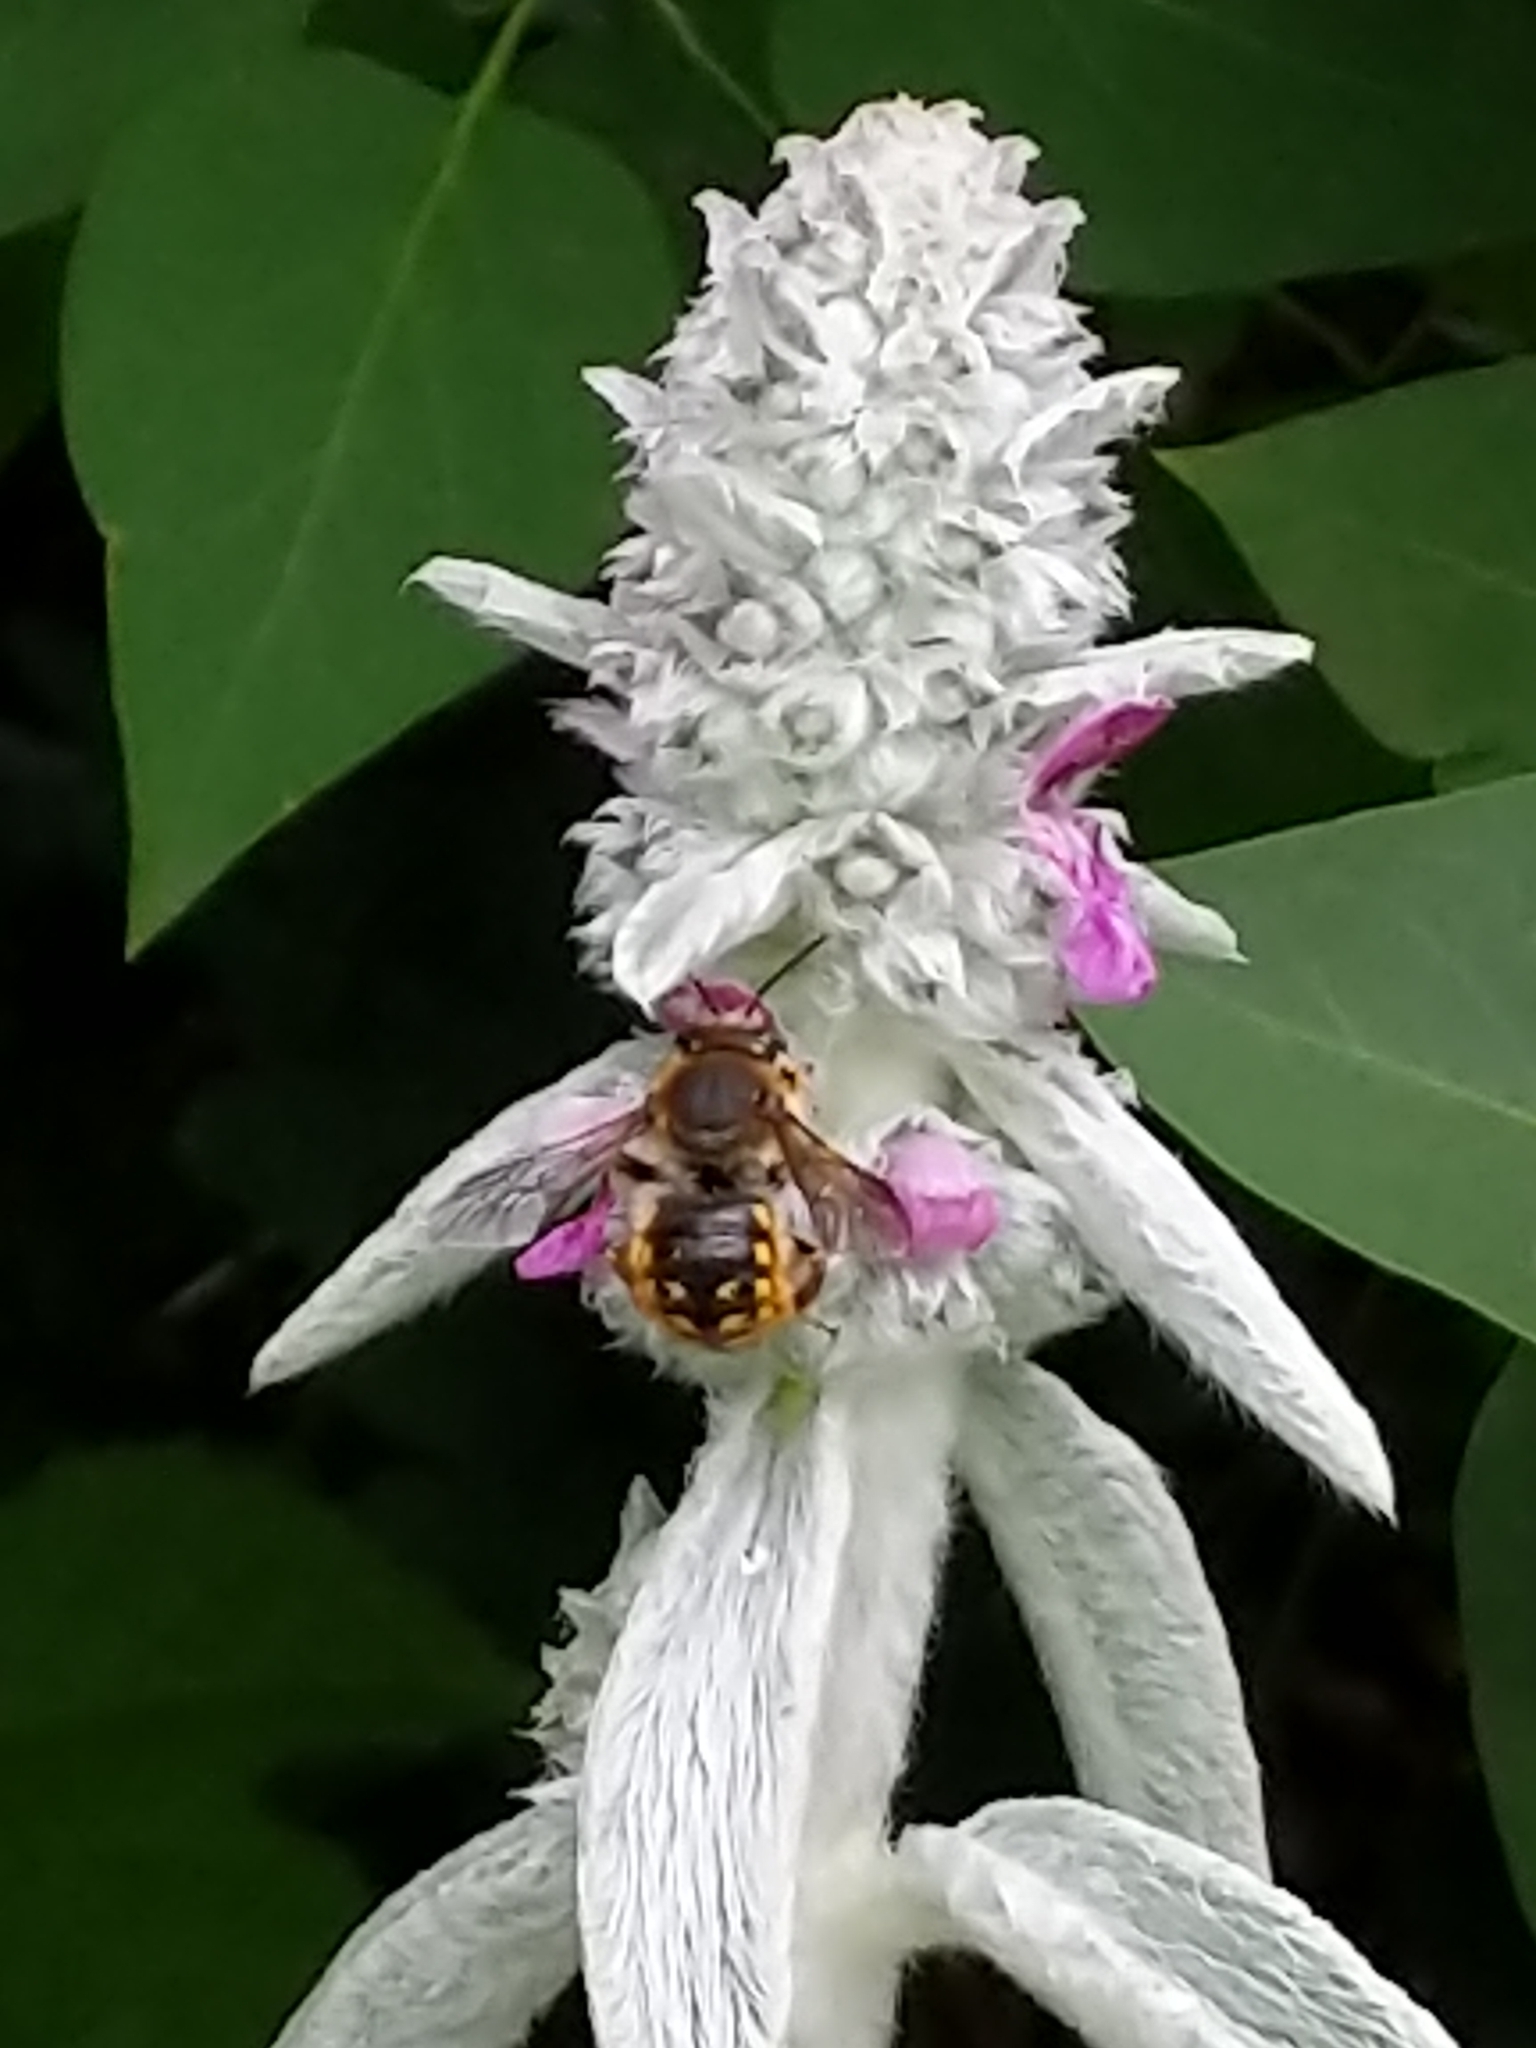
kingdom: Animalia
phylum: Arthropoda
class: Insecta
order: Hymenoptera
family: Megachilidae
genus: Anthidium
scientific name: Anthidium manicatum
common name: Wool carder bee
